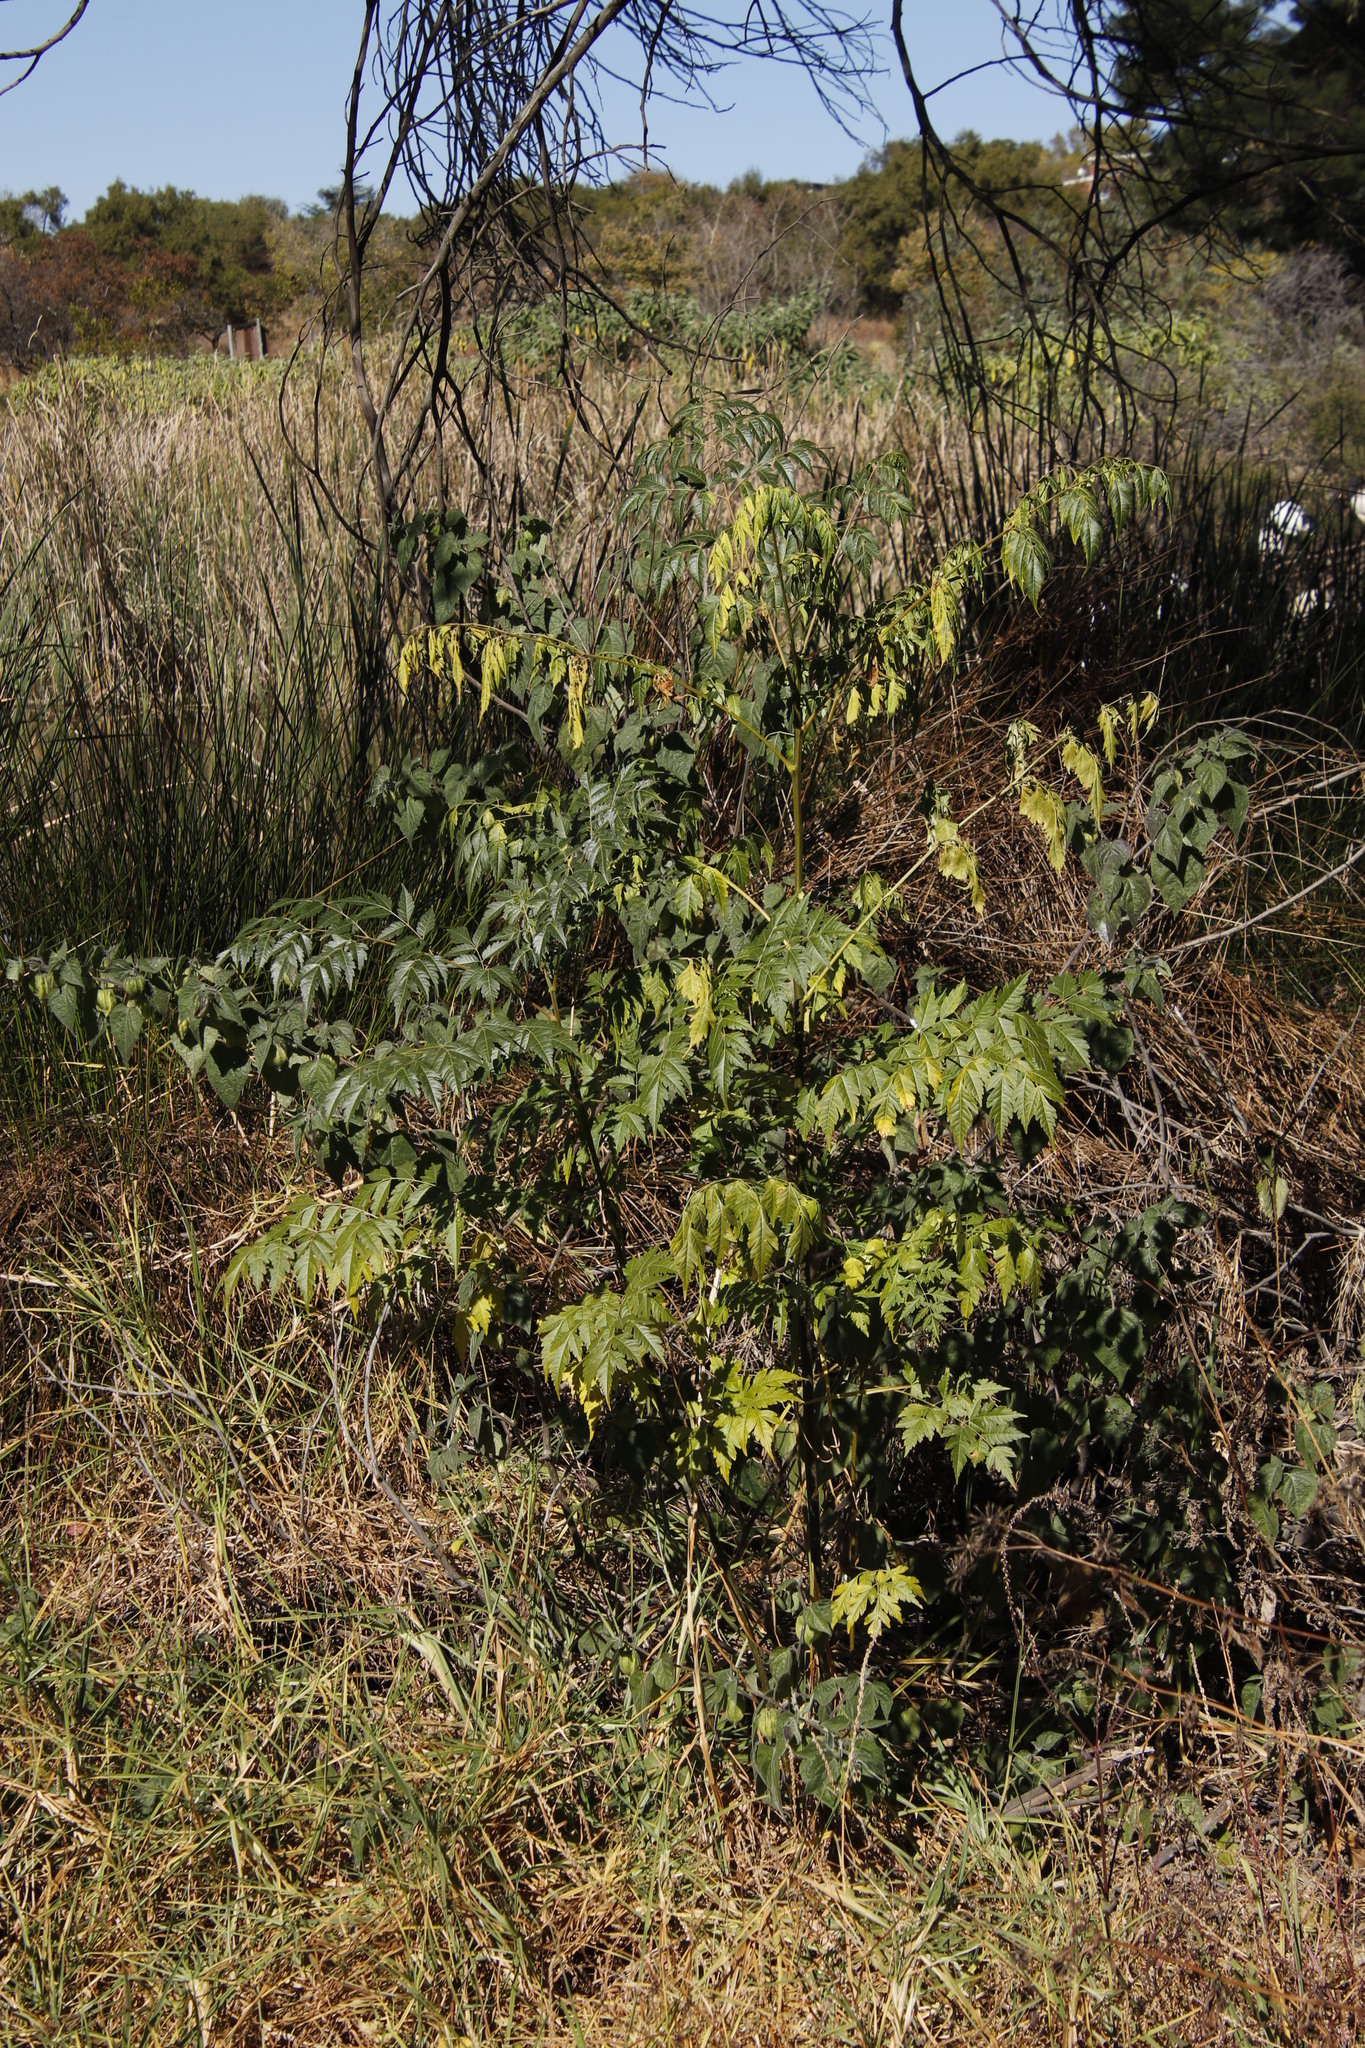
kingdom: Plantae
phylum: Tracheophyta
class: Magnoliopsida
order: Sapindales
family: Meliaceae
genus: Melia
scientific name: Melia azedarach
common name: Chinaberrytree
